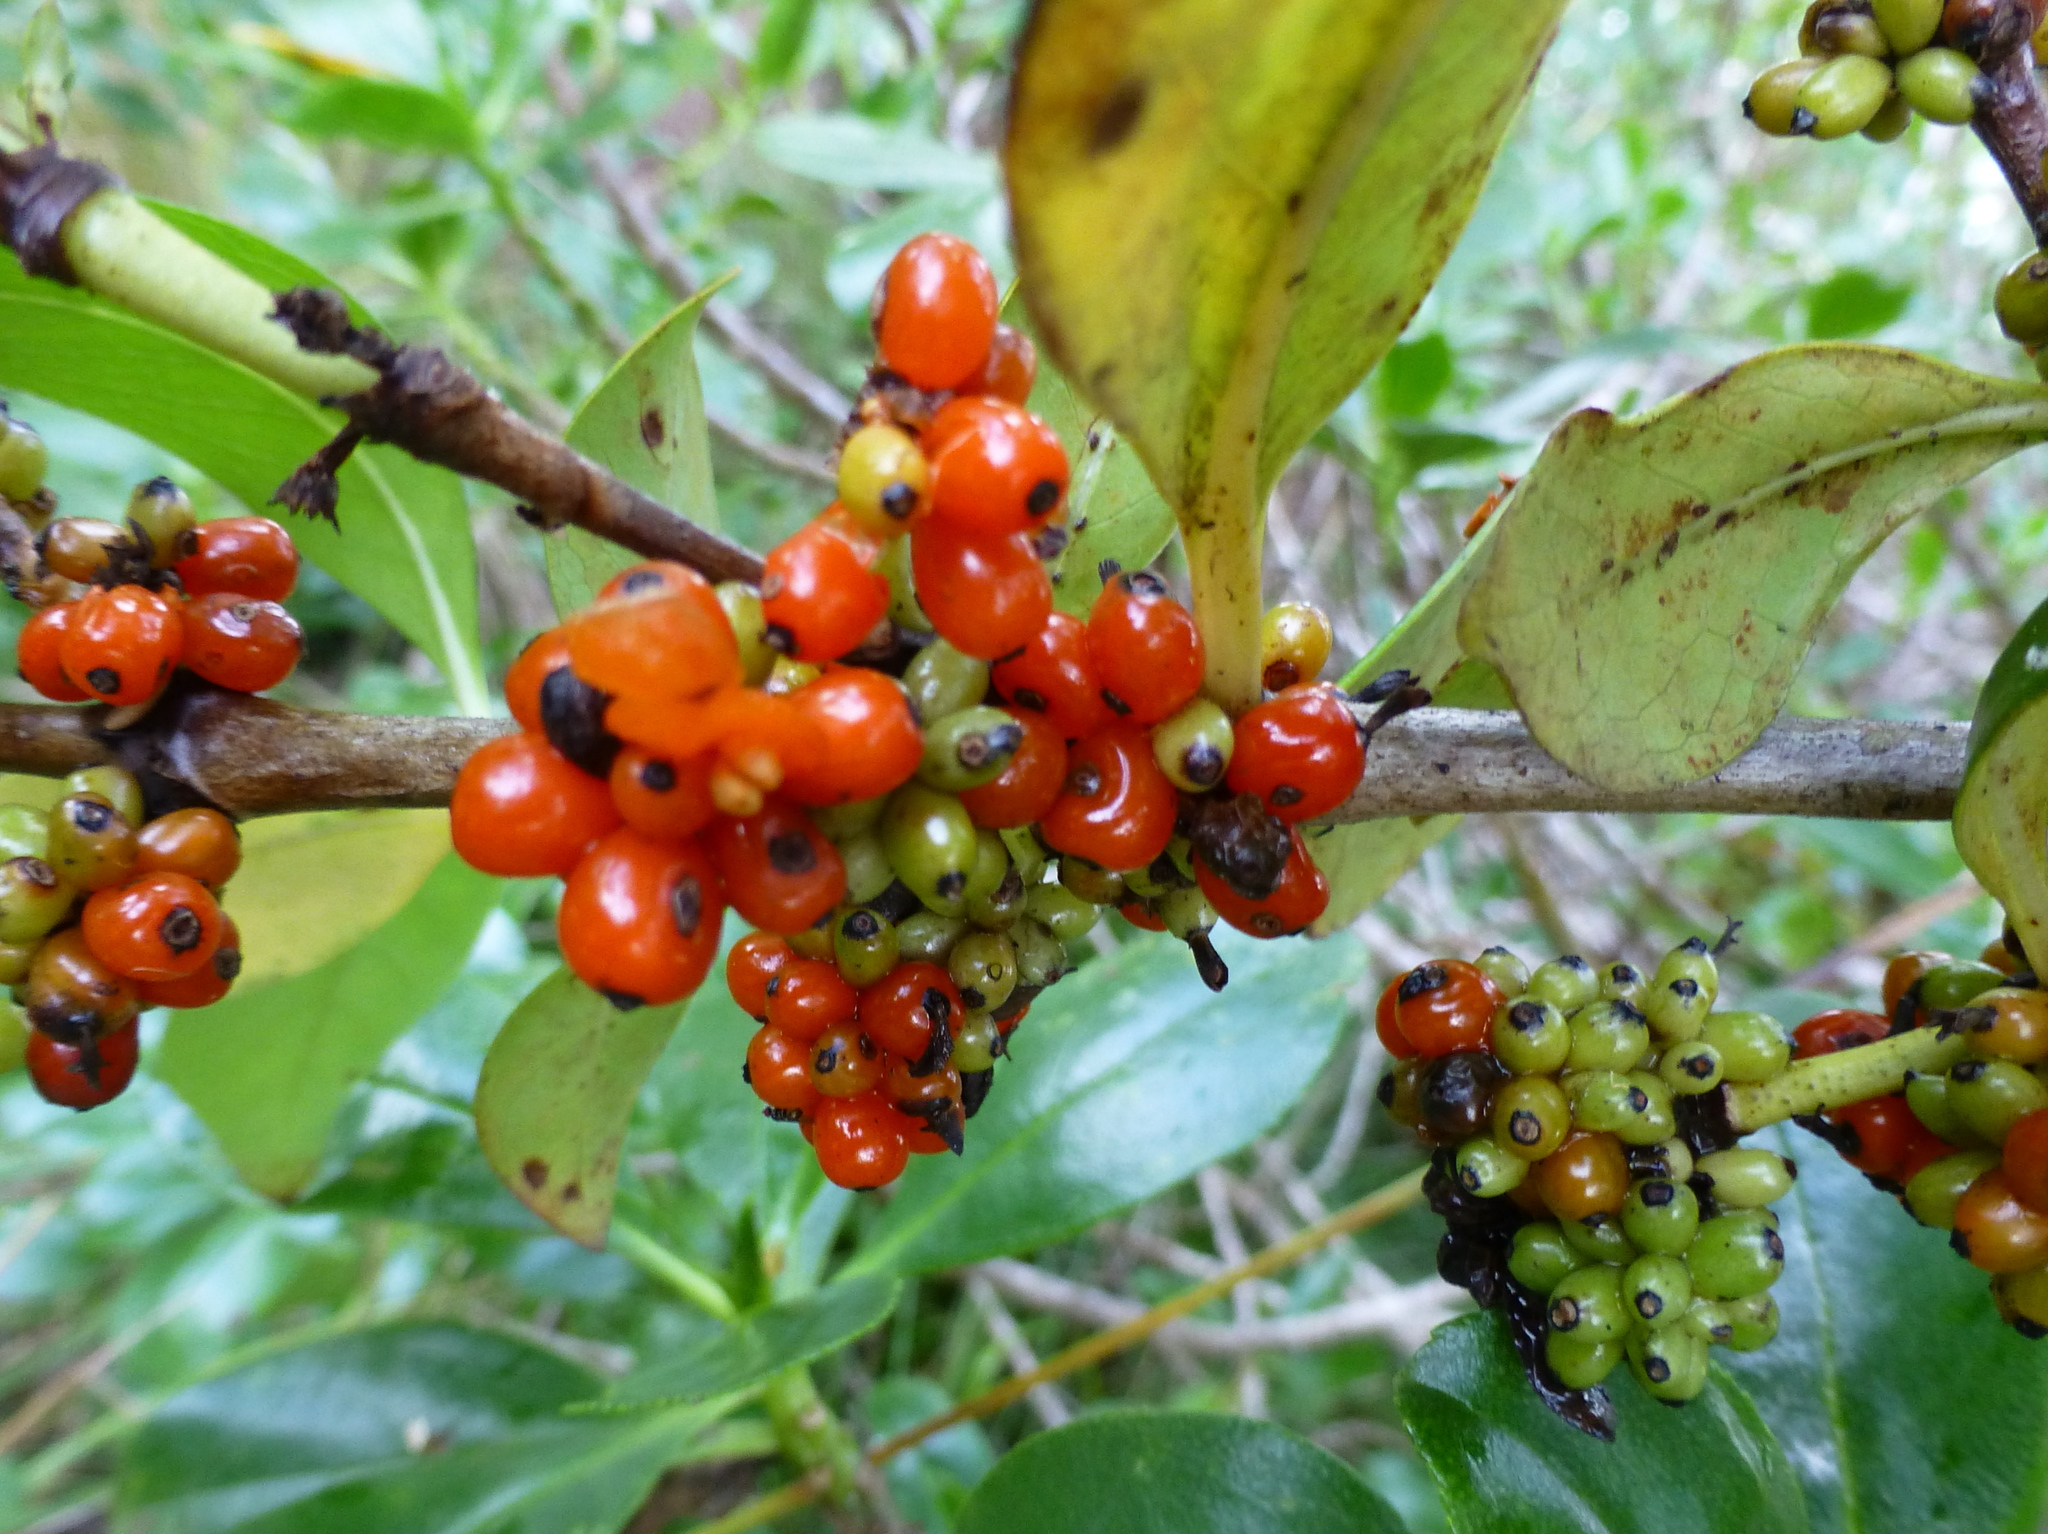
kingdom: Plantae
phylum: Tracheophyta
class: Magnoliopsida
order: Gentianales
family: Rubiaceae
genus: Coprosma
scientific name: Coprosma robusta
